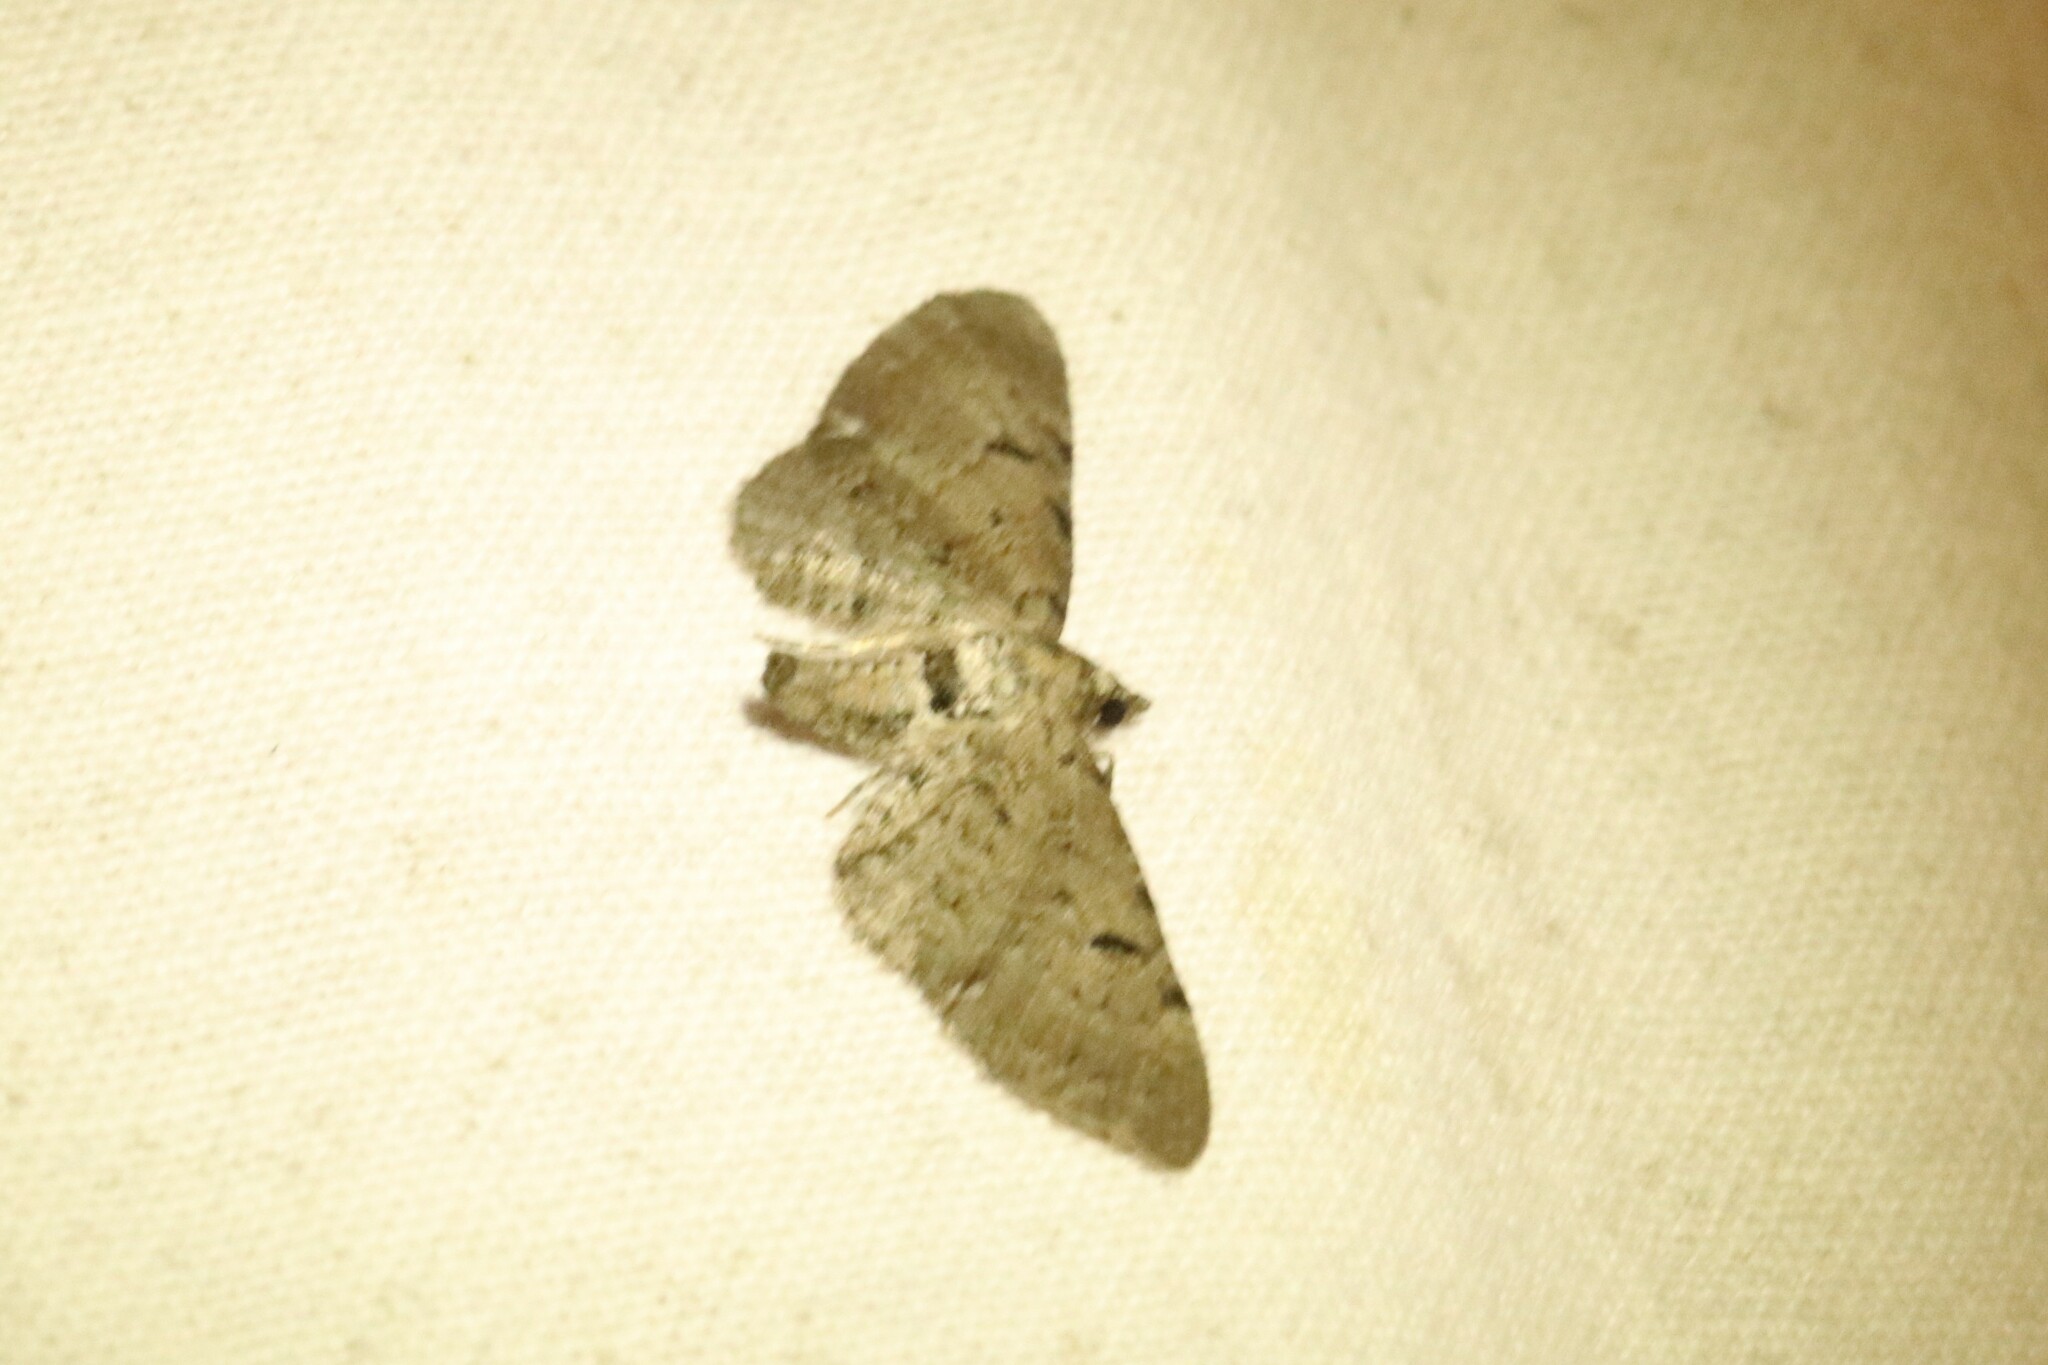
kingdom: Animalia
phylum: Arthropoda
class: Insecta
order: Lepidoptera
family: Geometridae
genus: Eupithecia
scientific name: Eupithecia absinthiata
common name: Wormwood pug
